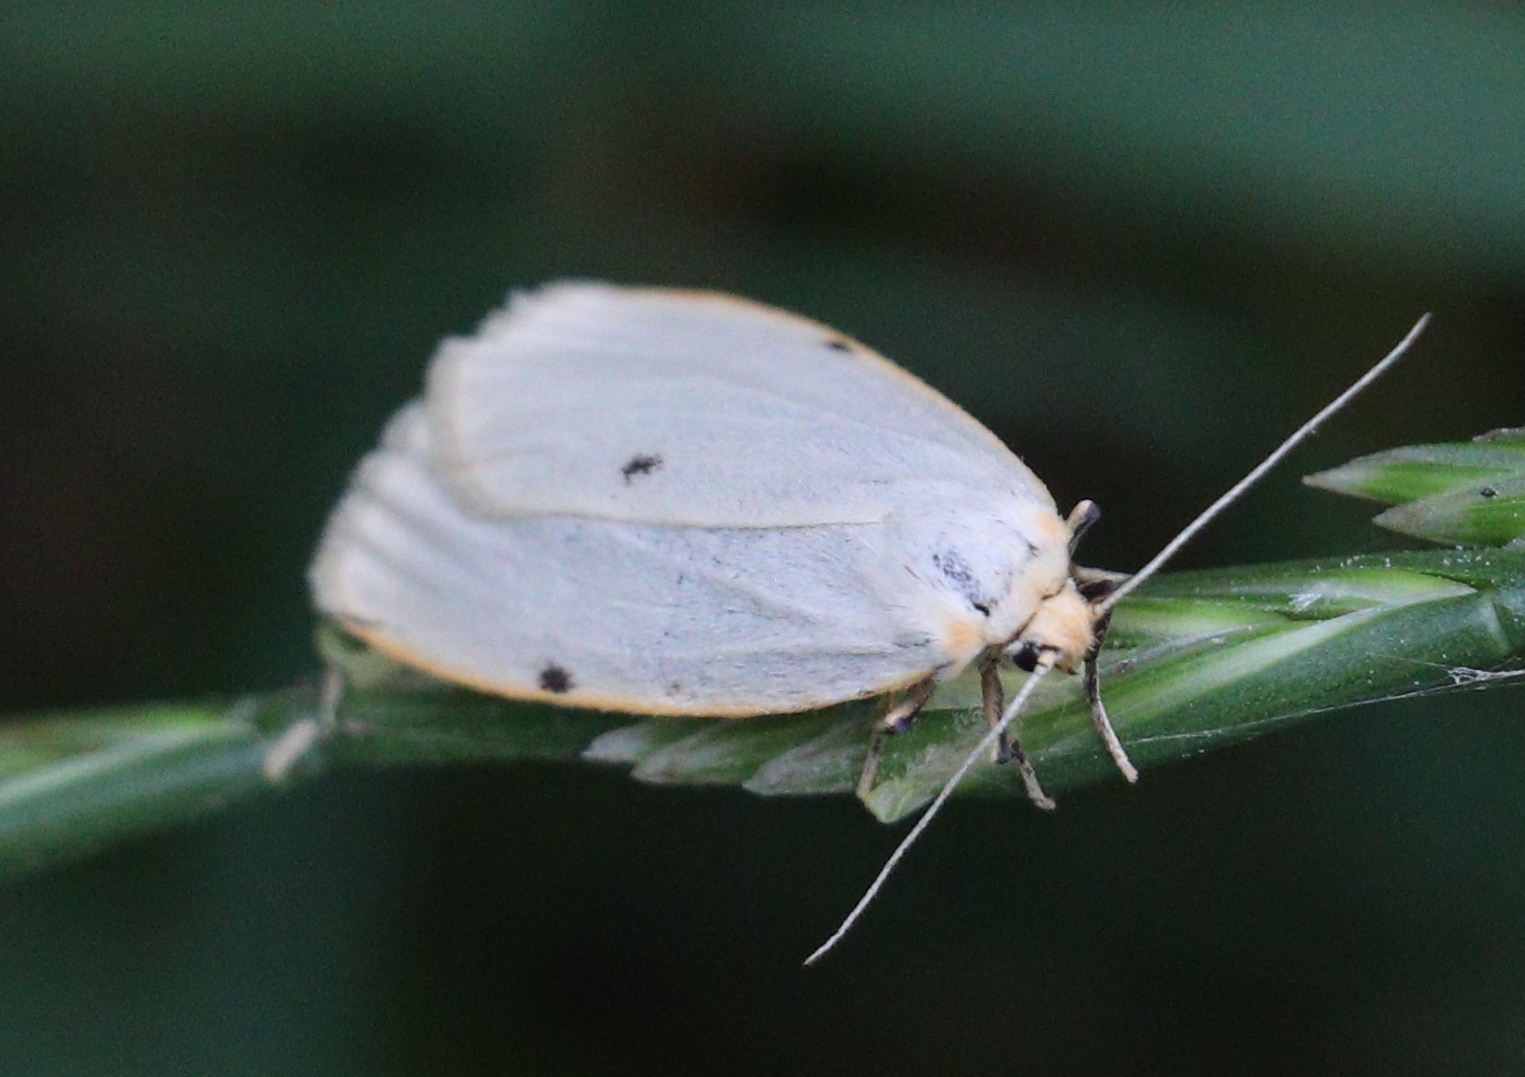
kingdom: Animalia
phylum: Arthropoda
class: Insecta
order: Lepidoptera
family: Erebidae
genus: Cybosia
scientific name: Cybosia mesomella
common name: Four-dotted footman
